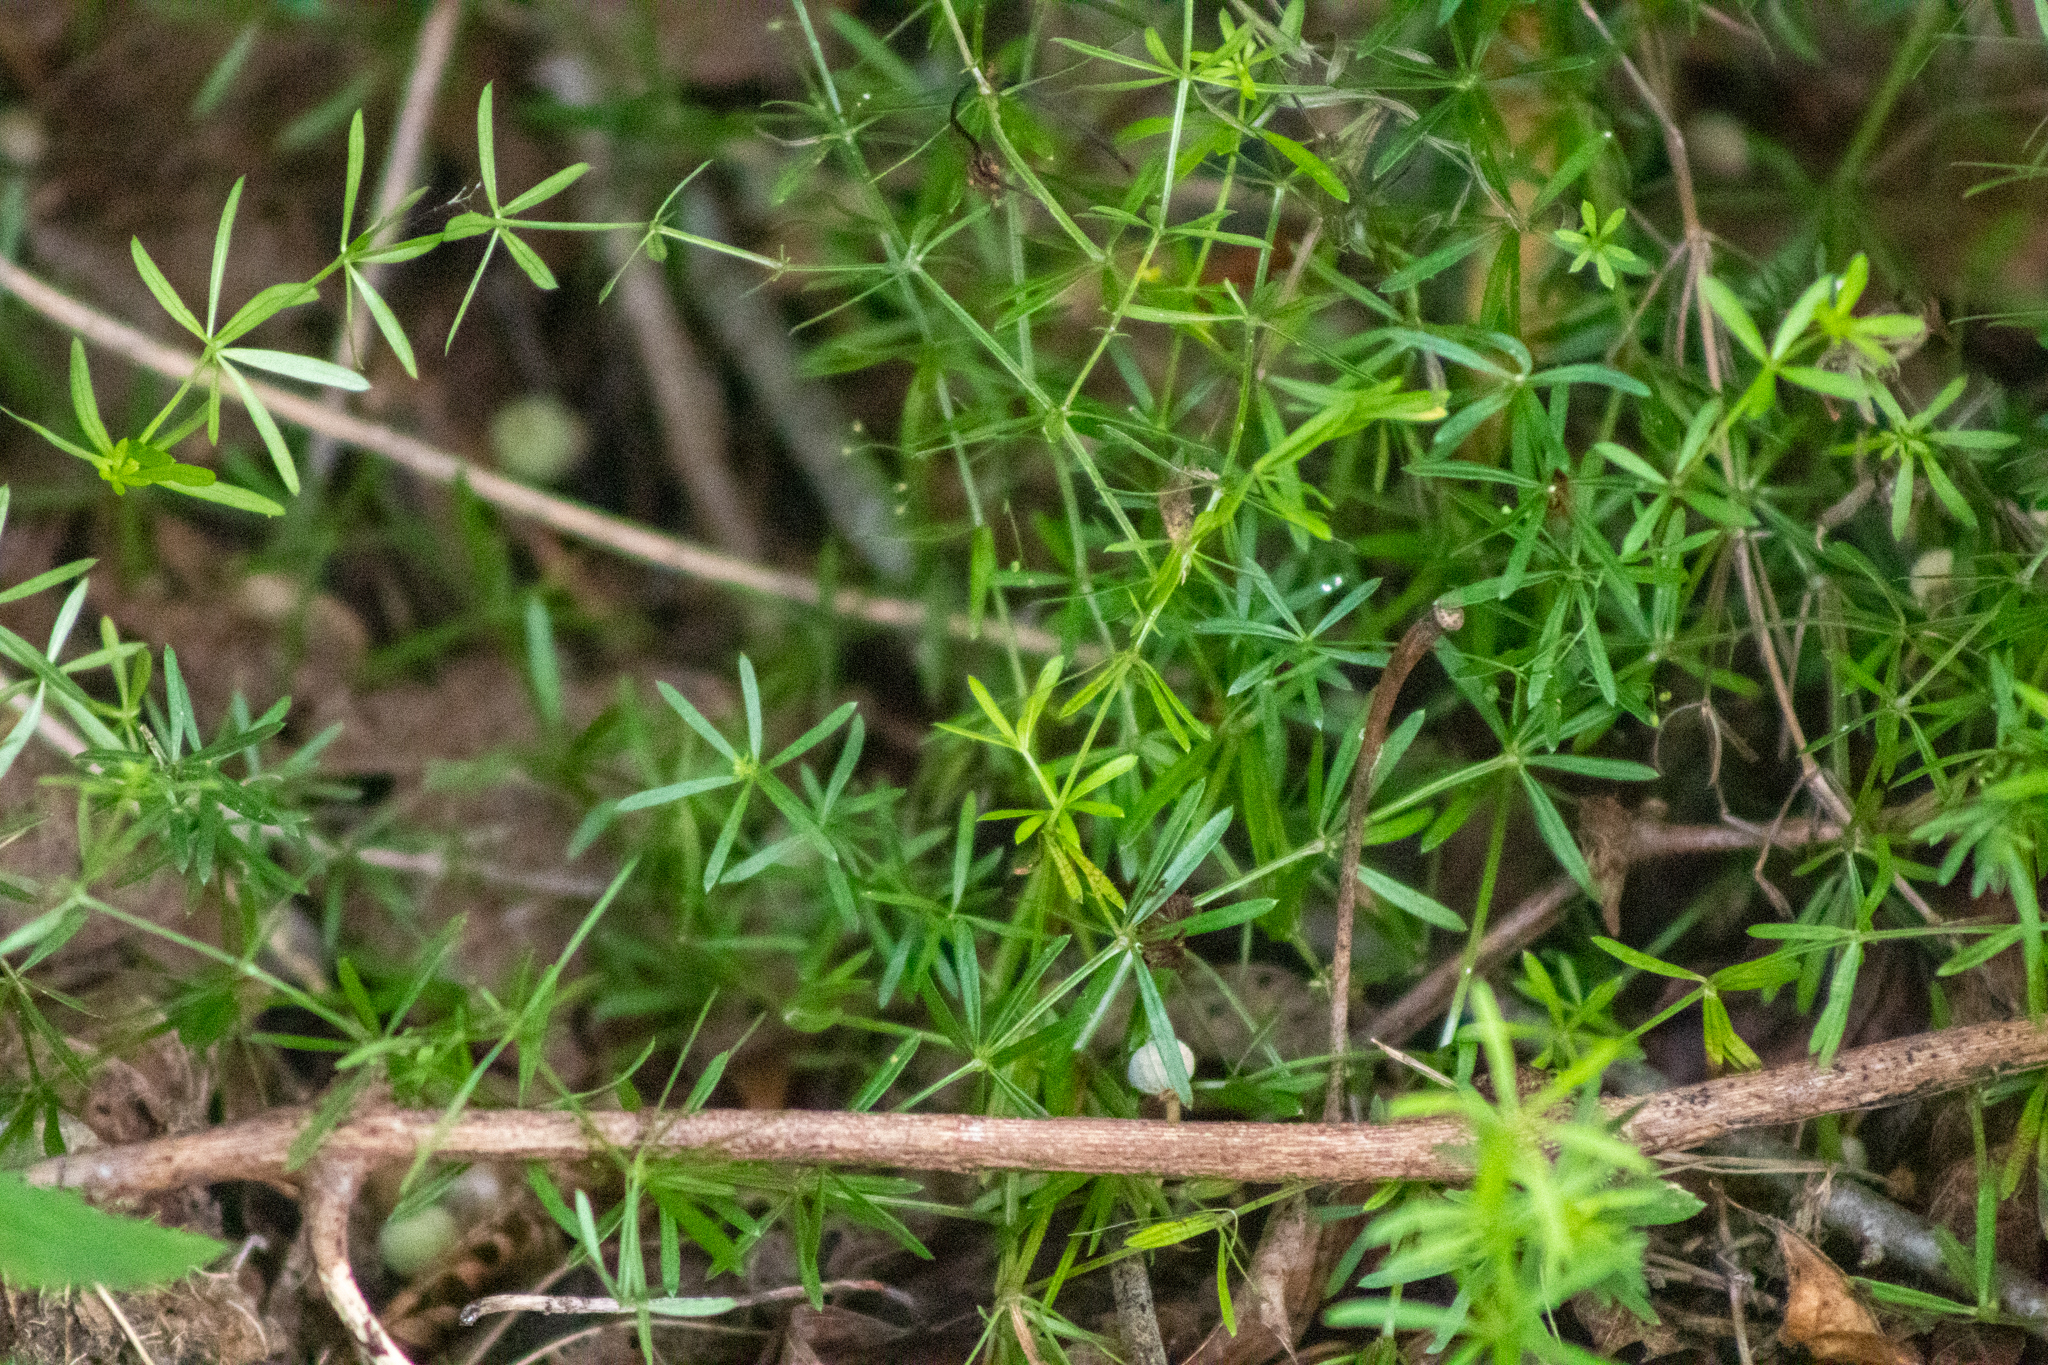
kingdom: Plantae
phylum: Tracheophyta
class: Magnoliopsida
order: Gentianales
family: Rubiaceae
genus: Galium
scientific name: Galium concinnum
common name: Shining bedstraw
